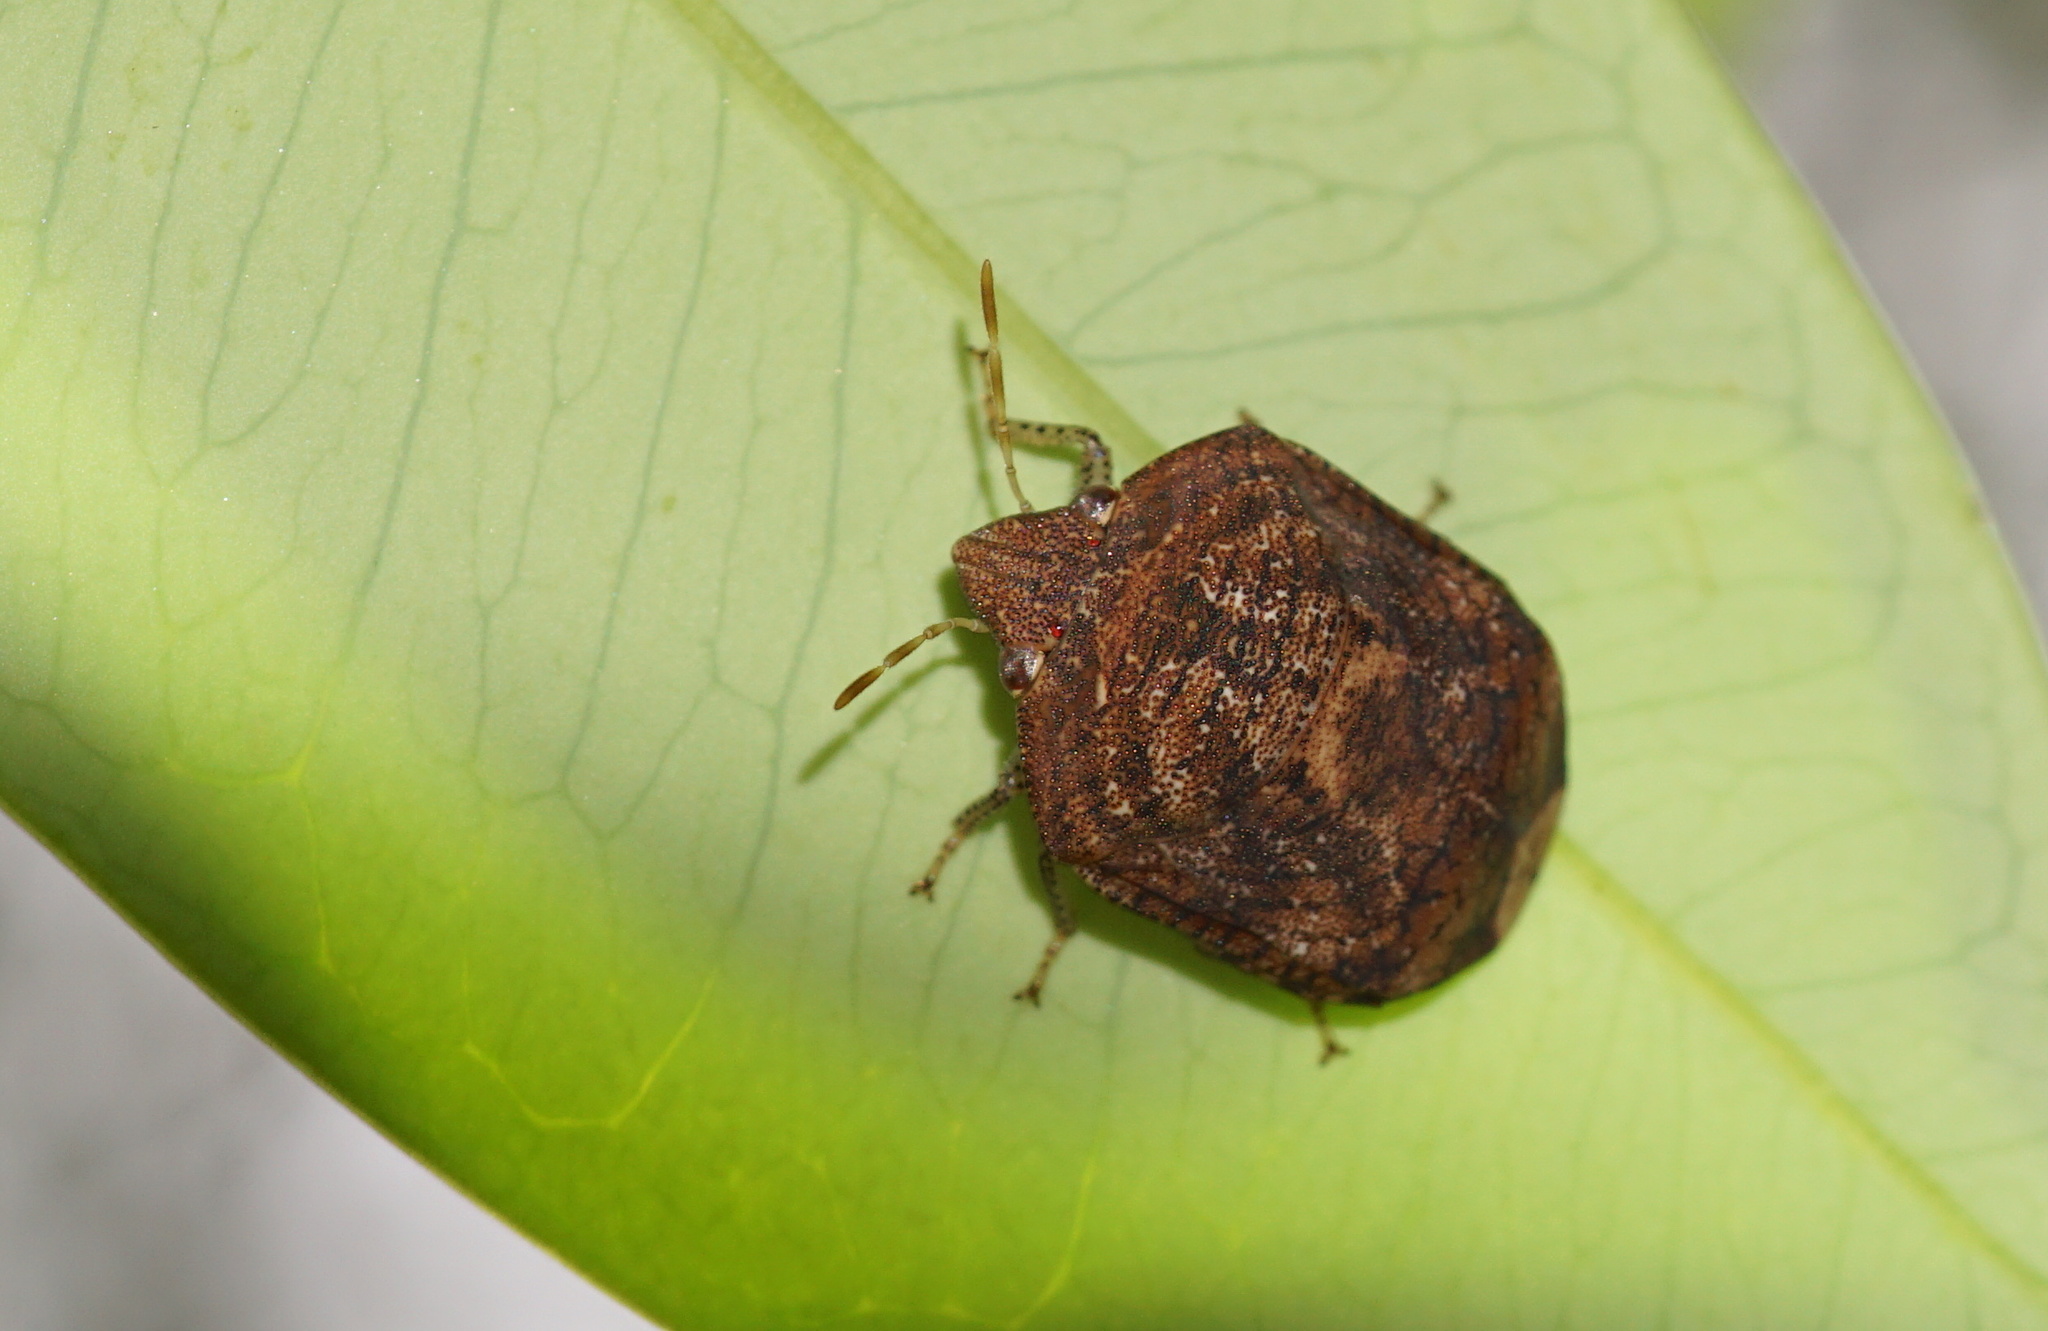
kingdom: Animalia
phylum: Arthropoda
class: Insecta
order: Hemiptera
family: Scutelleridae
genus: Stethaulax
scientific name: Stethaulax marmoratus
